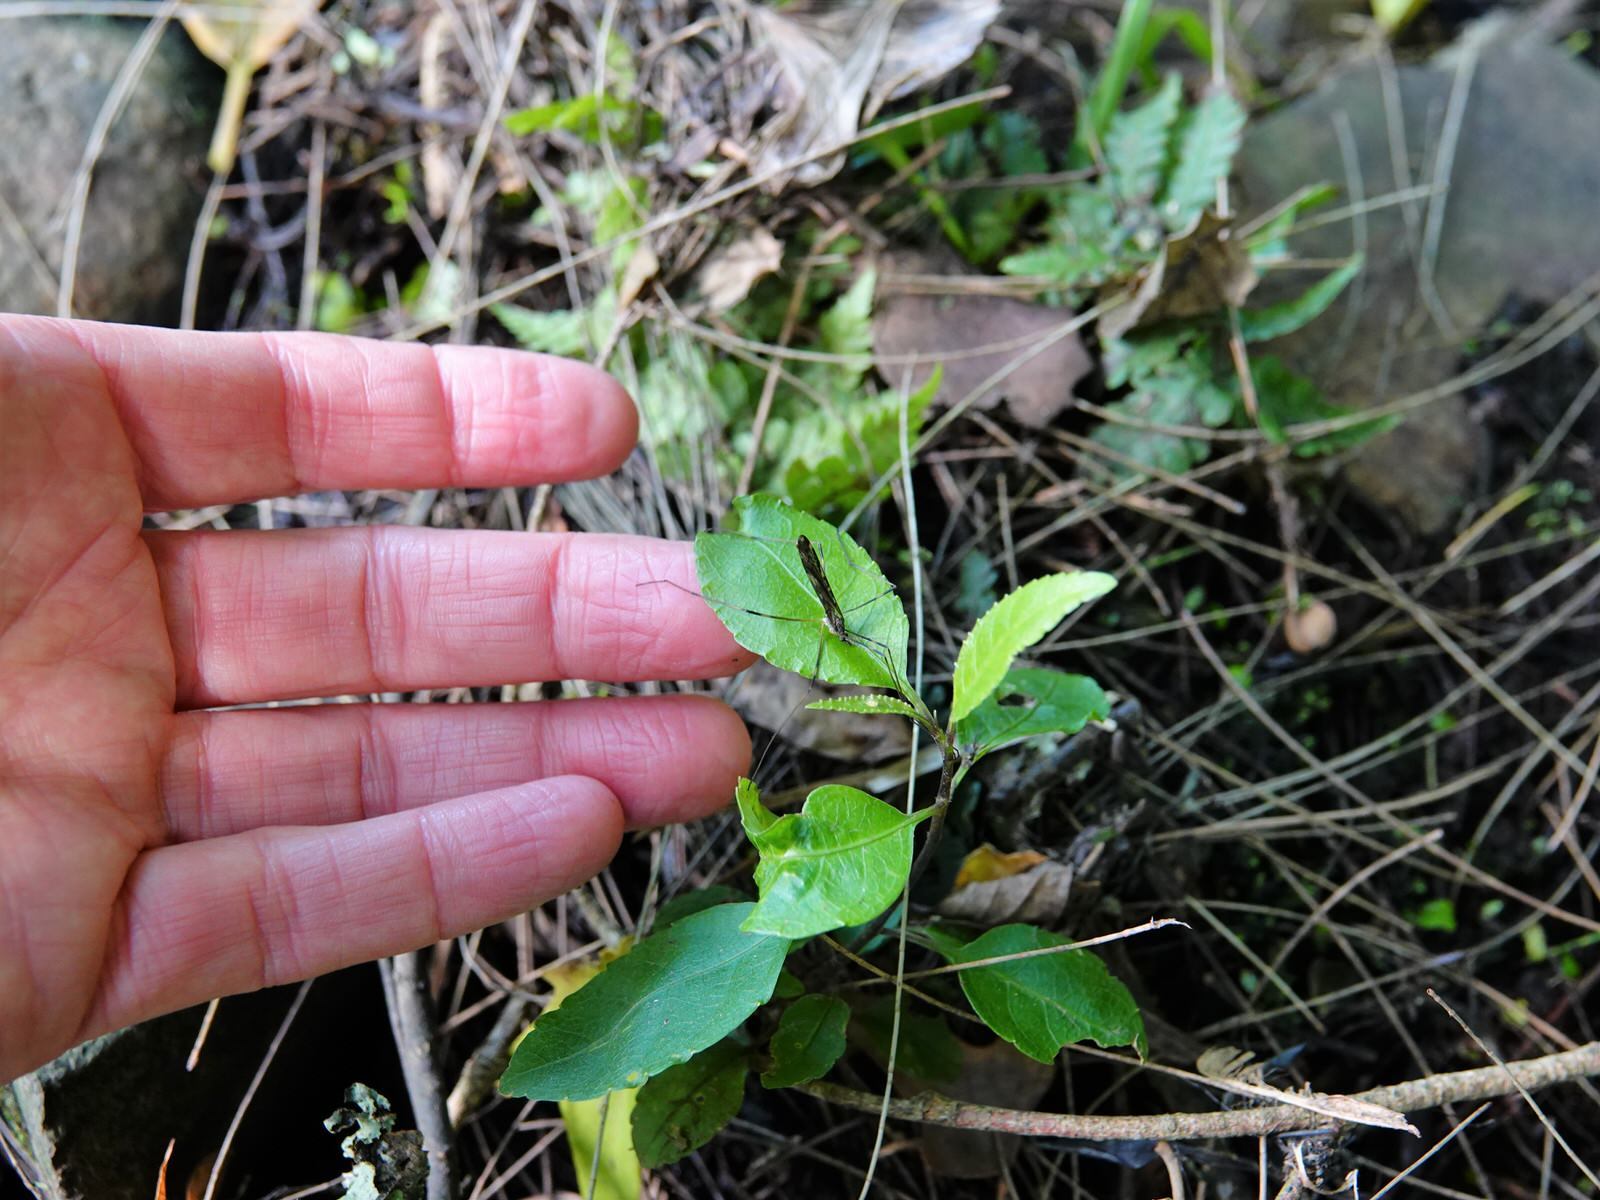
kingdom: Animalia
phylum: Arthropoda
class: Insecta
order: Diptera
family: Limoniidae
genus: Paralimnophila
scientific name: Paralimnophila skusei
